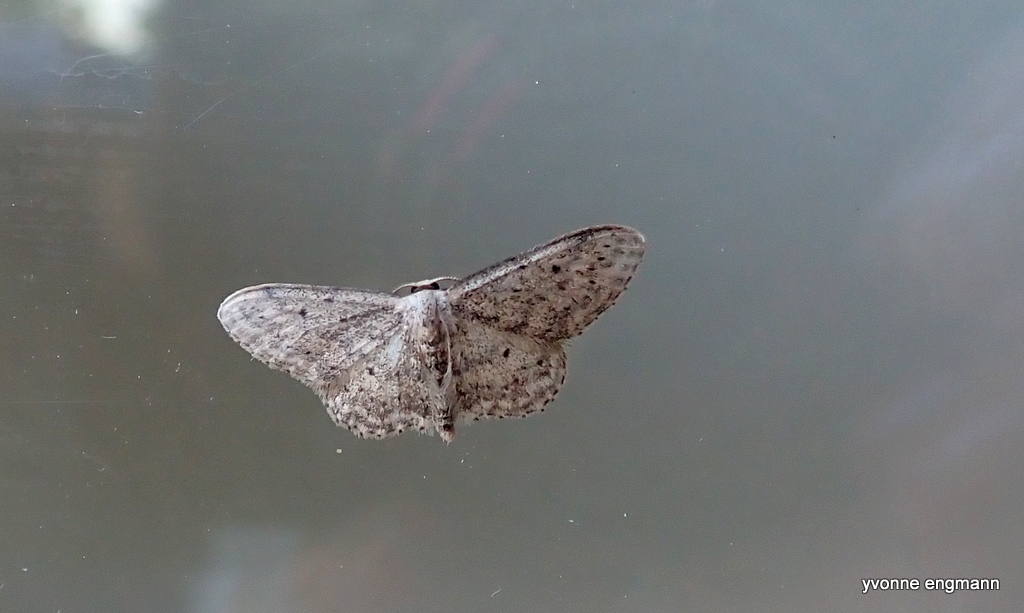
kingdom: Animalia
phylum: Arthropoda
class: Insecta
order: Lepidoptera
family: Geometridae
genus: Idaea
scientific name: Idaea seriata
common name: Small dusty wave
